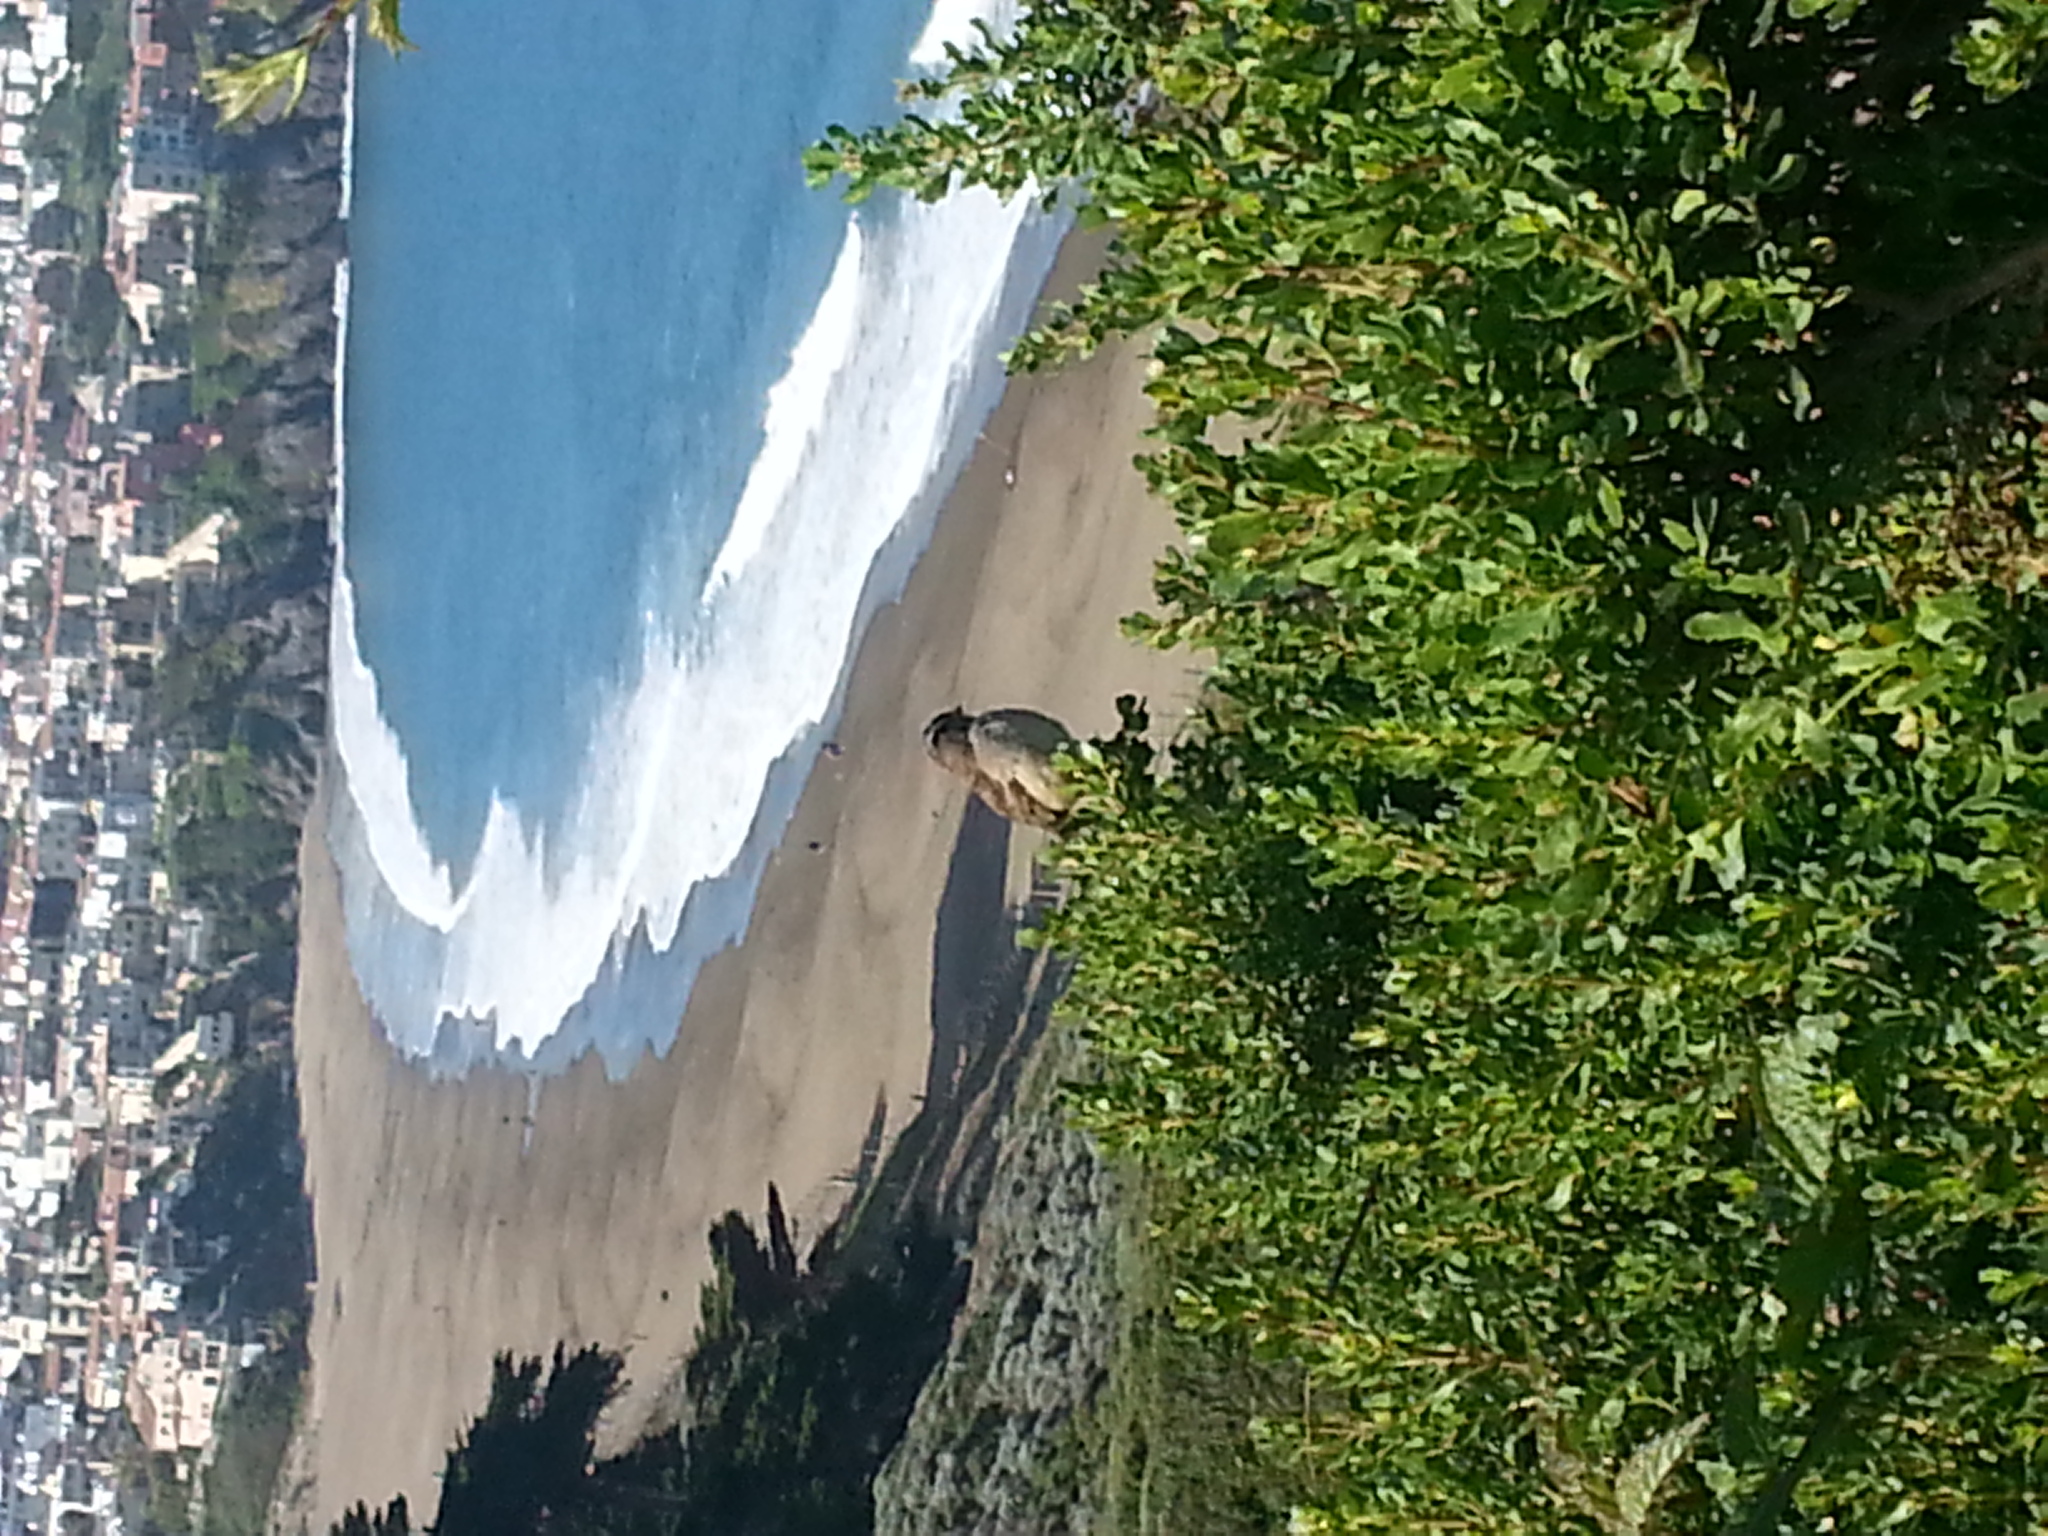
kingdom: Animalia
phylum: Chordata
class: Aves
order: Passeriformes
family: Passerellidae
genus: Zonotrichia
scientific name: Zonotrichia leucophrys
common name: White-crowned sparrow
